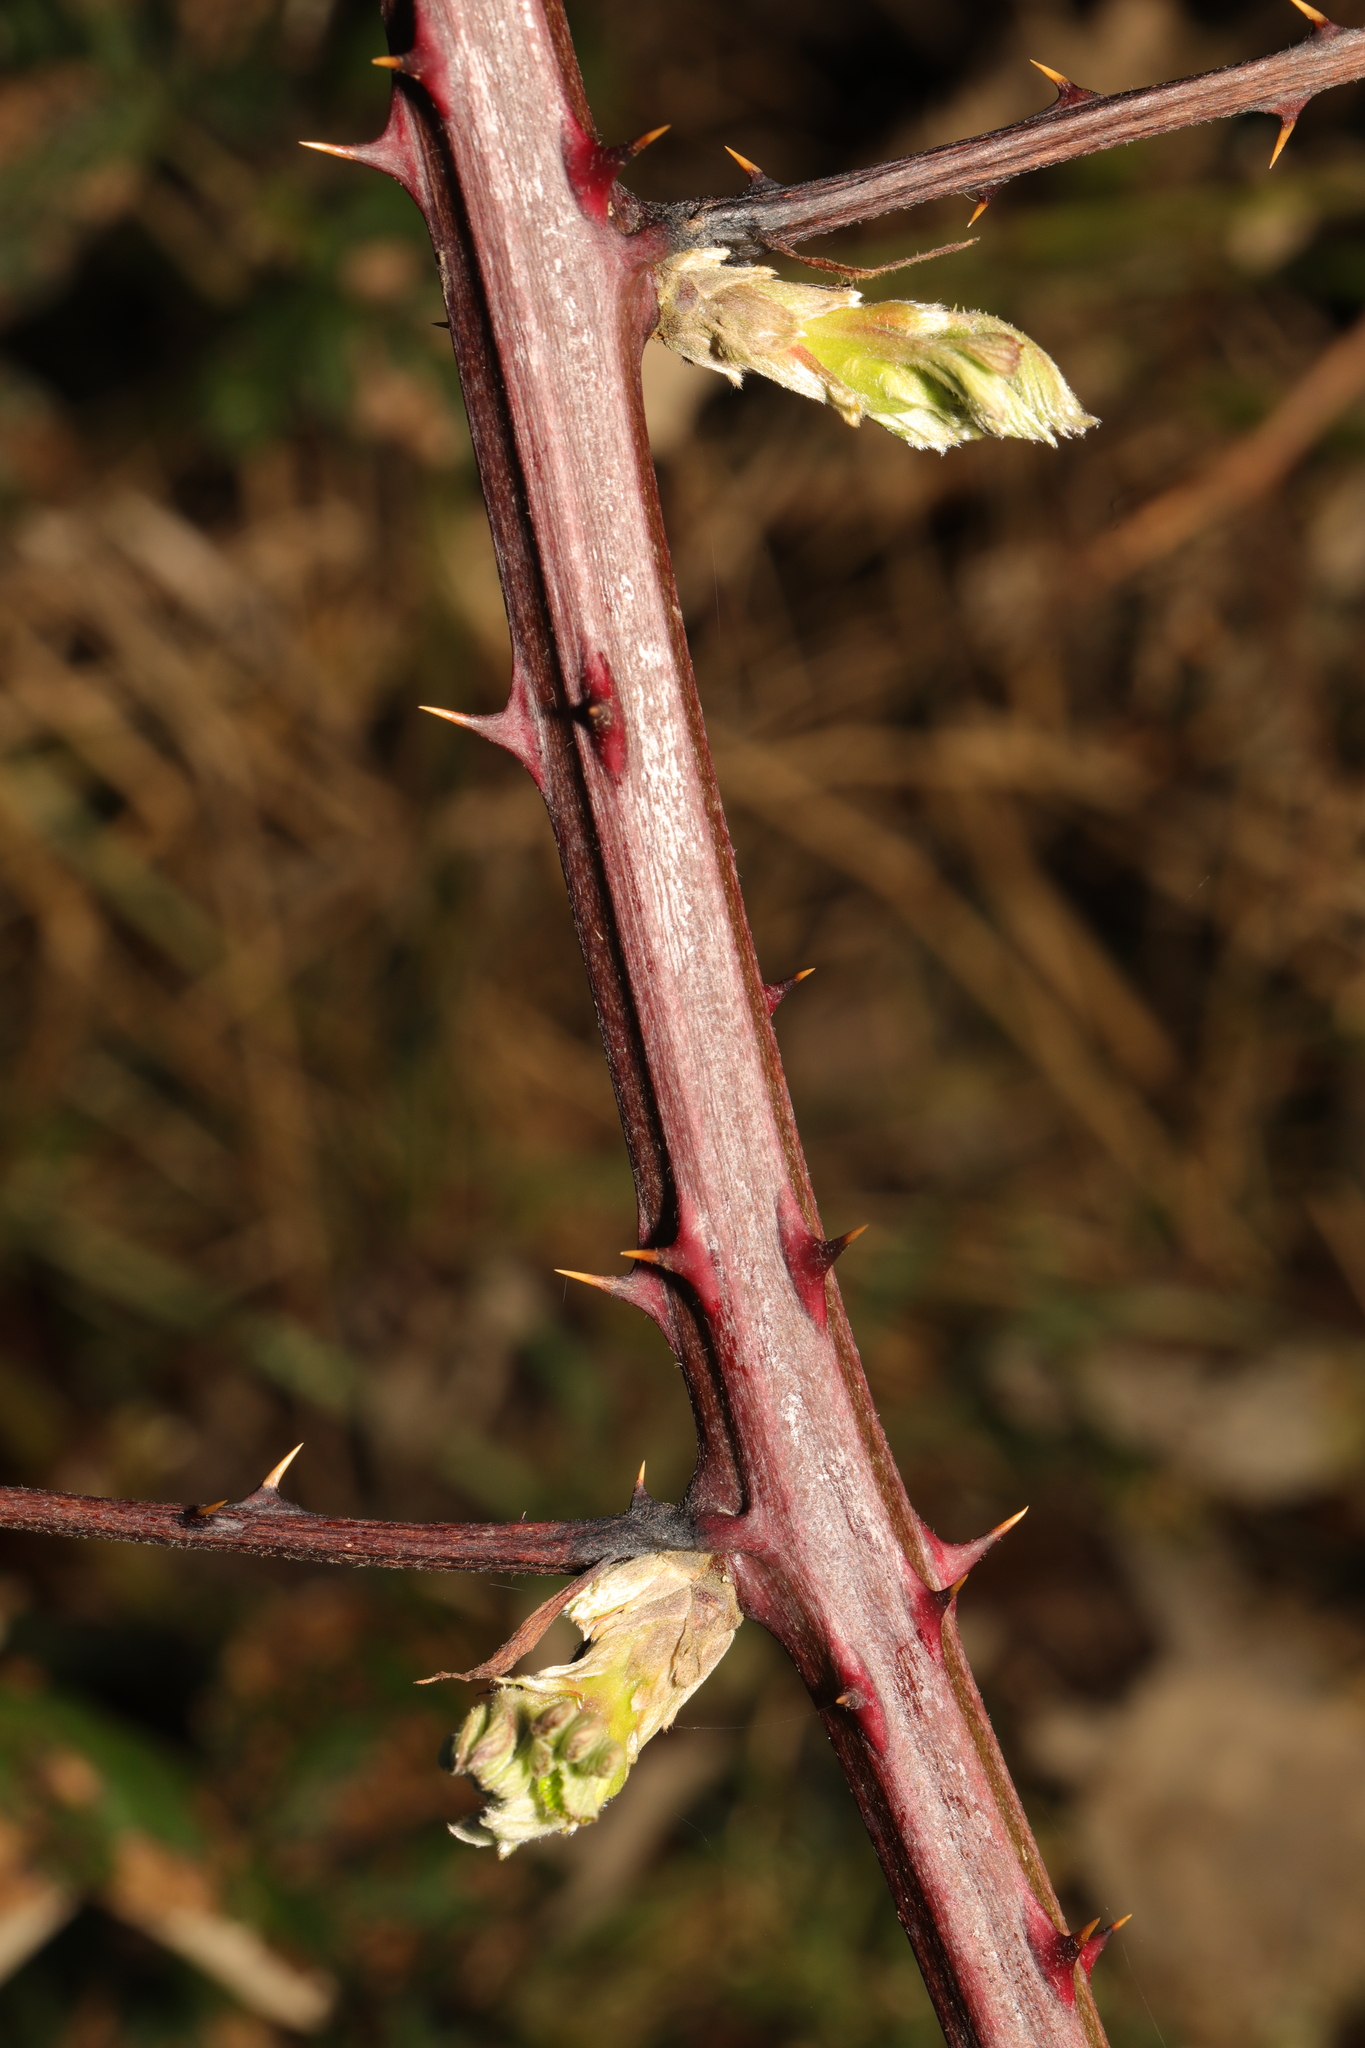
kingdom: Plantae
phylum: Tracheophyta
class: Magnoliopsida
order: Rosales
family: Rosaceae
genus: Rubus
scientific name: Rubus armeniacus
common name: Himalayan blackberry
